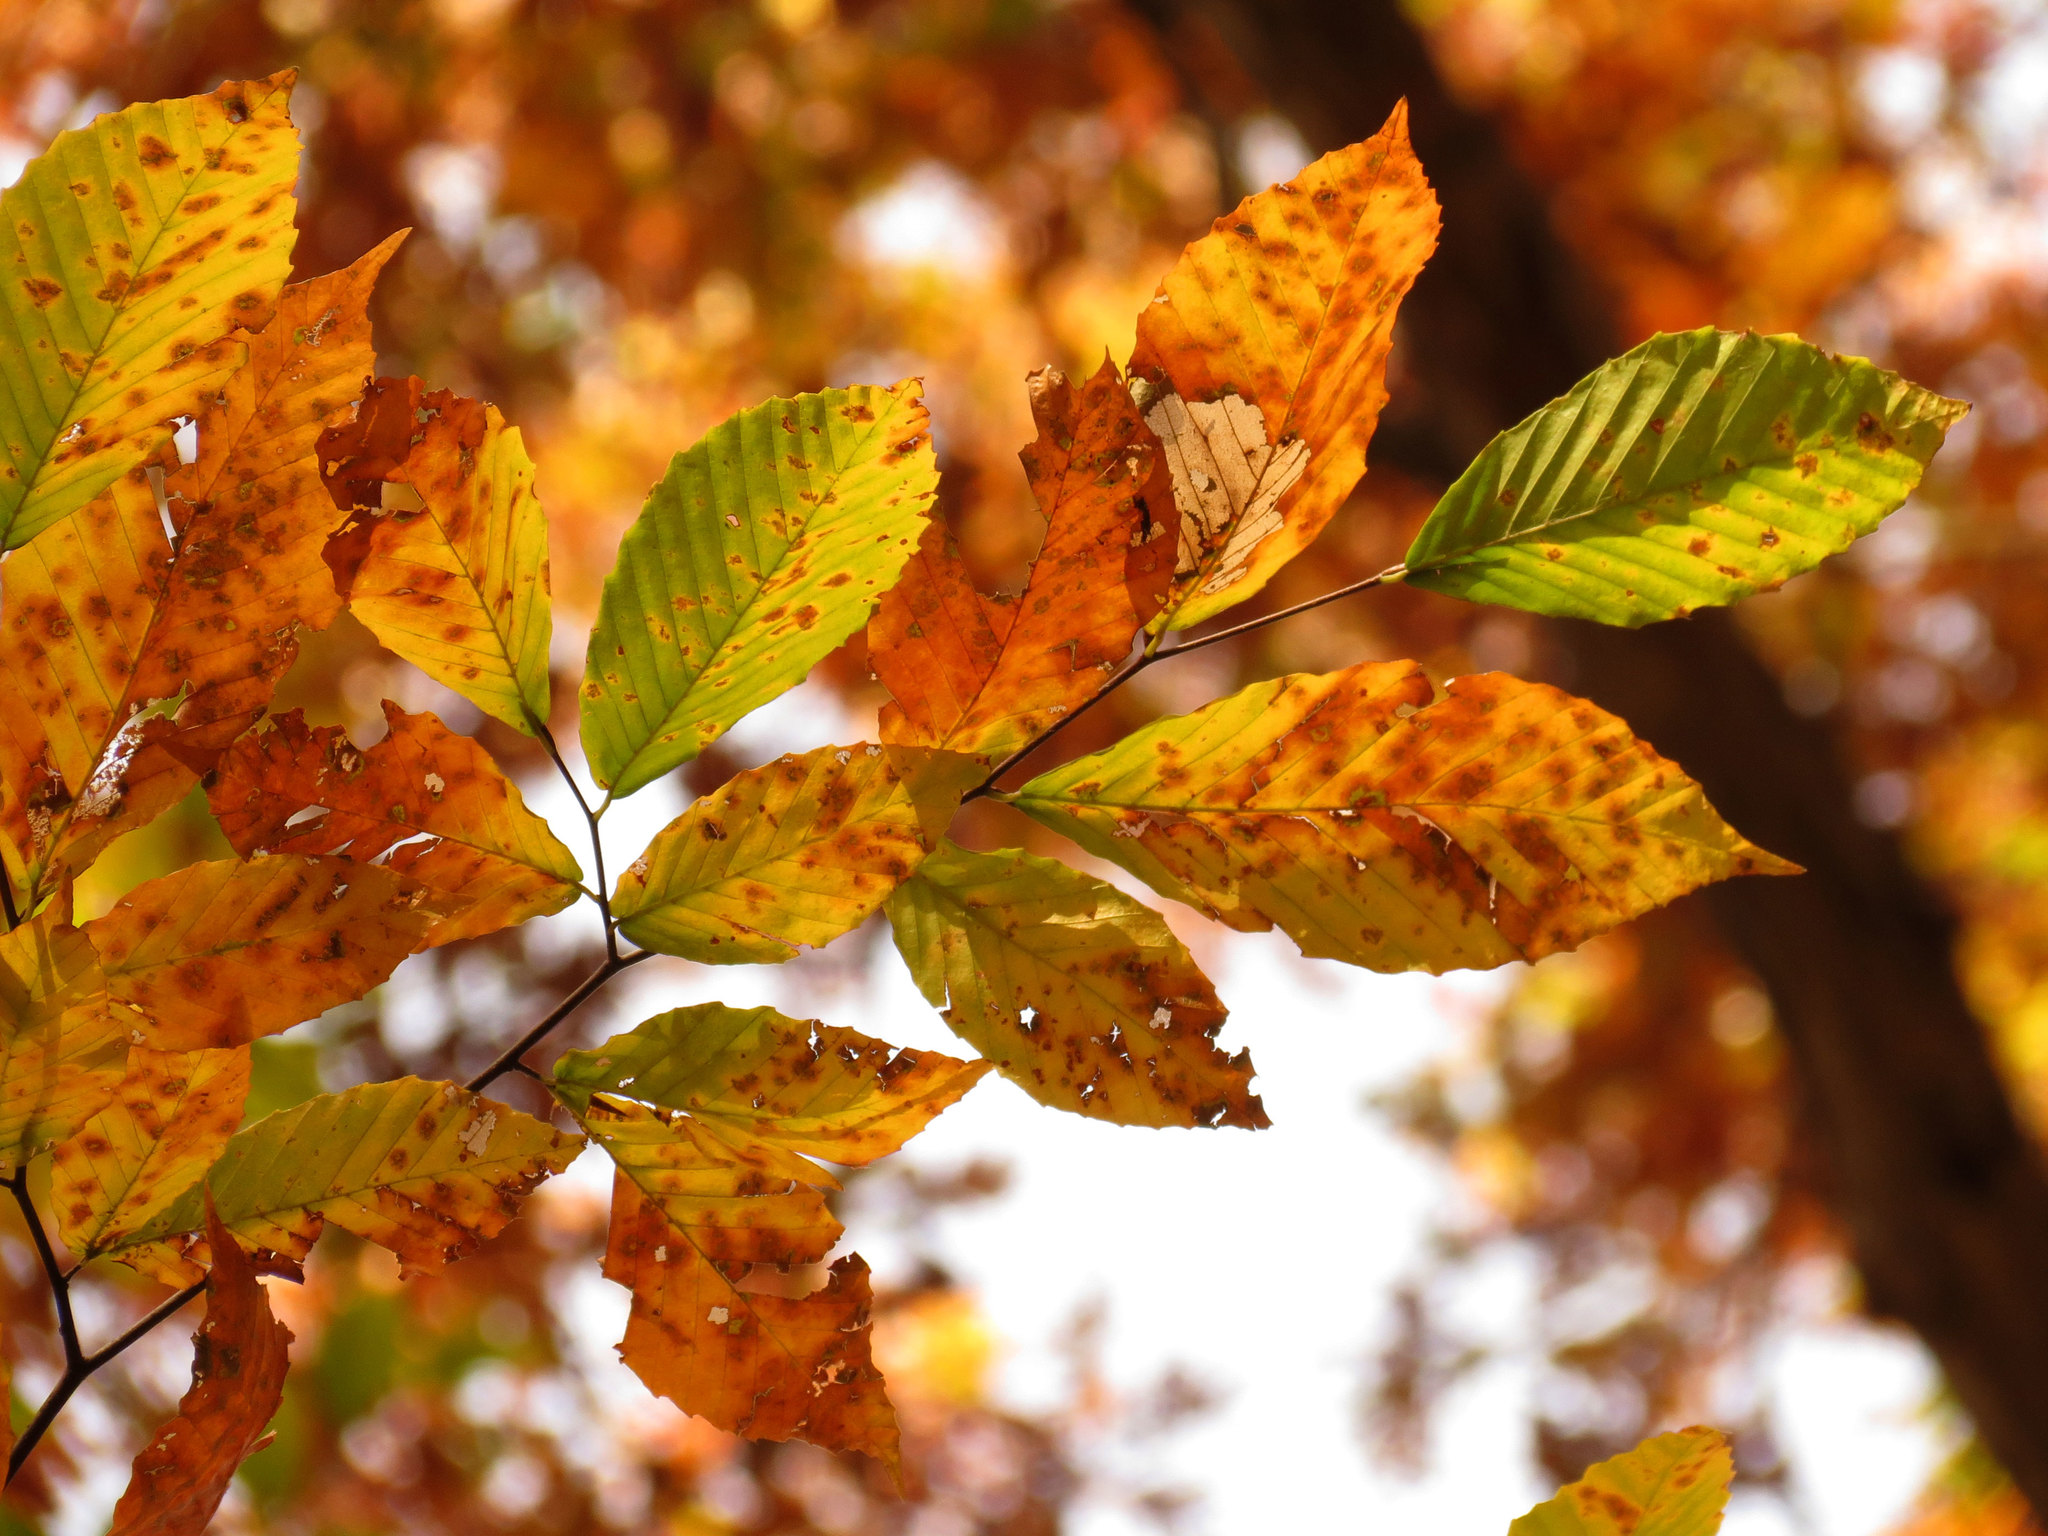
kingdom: Plantae
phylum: Tracheophyta
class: Magnoliopsida
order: Fagales
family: Fagaceae
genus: Fagus
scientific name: Fagus grandifolia
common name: American beech
